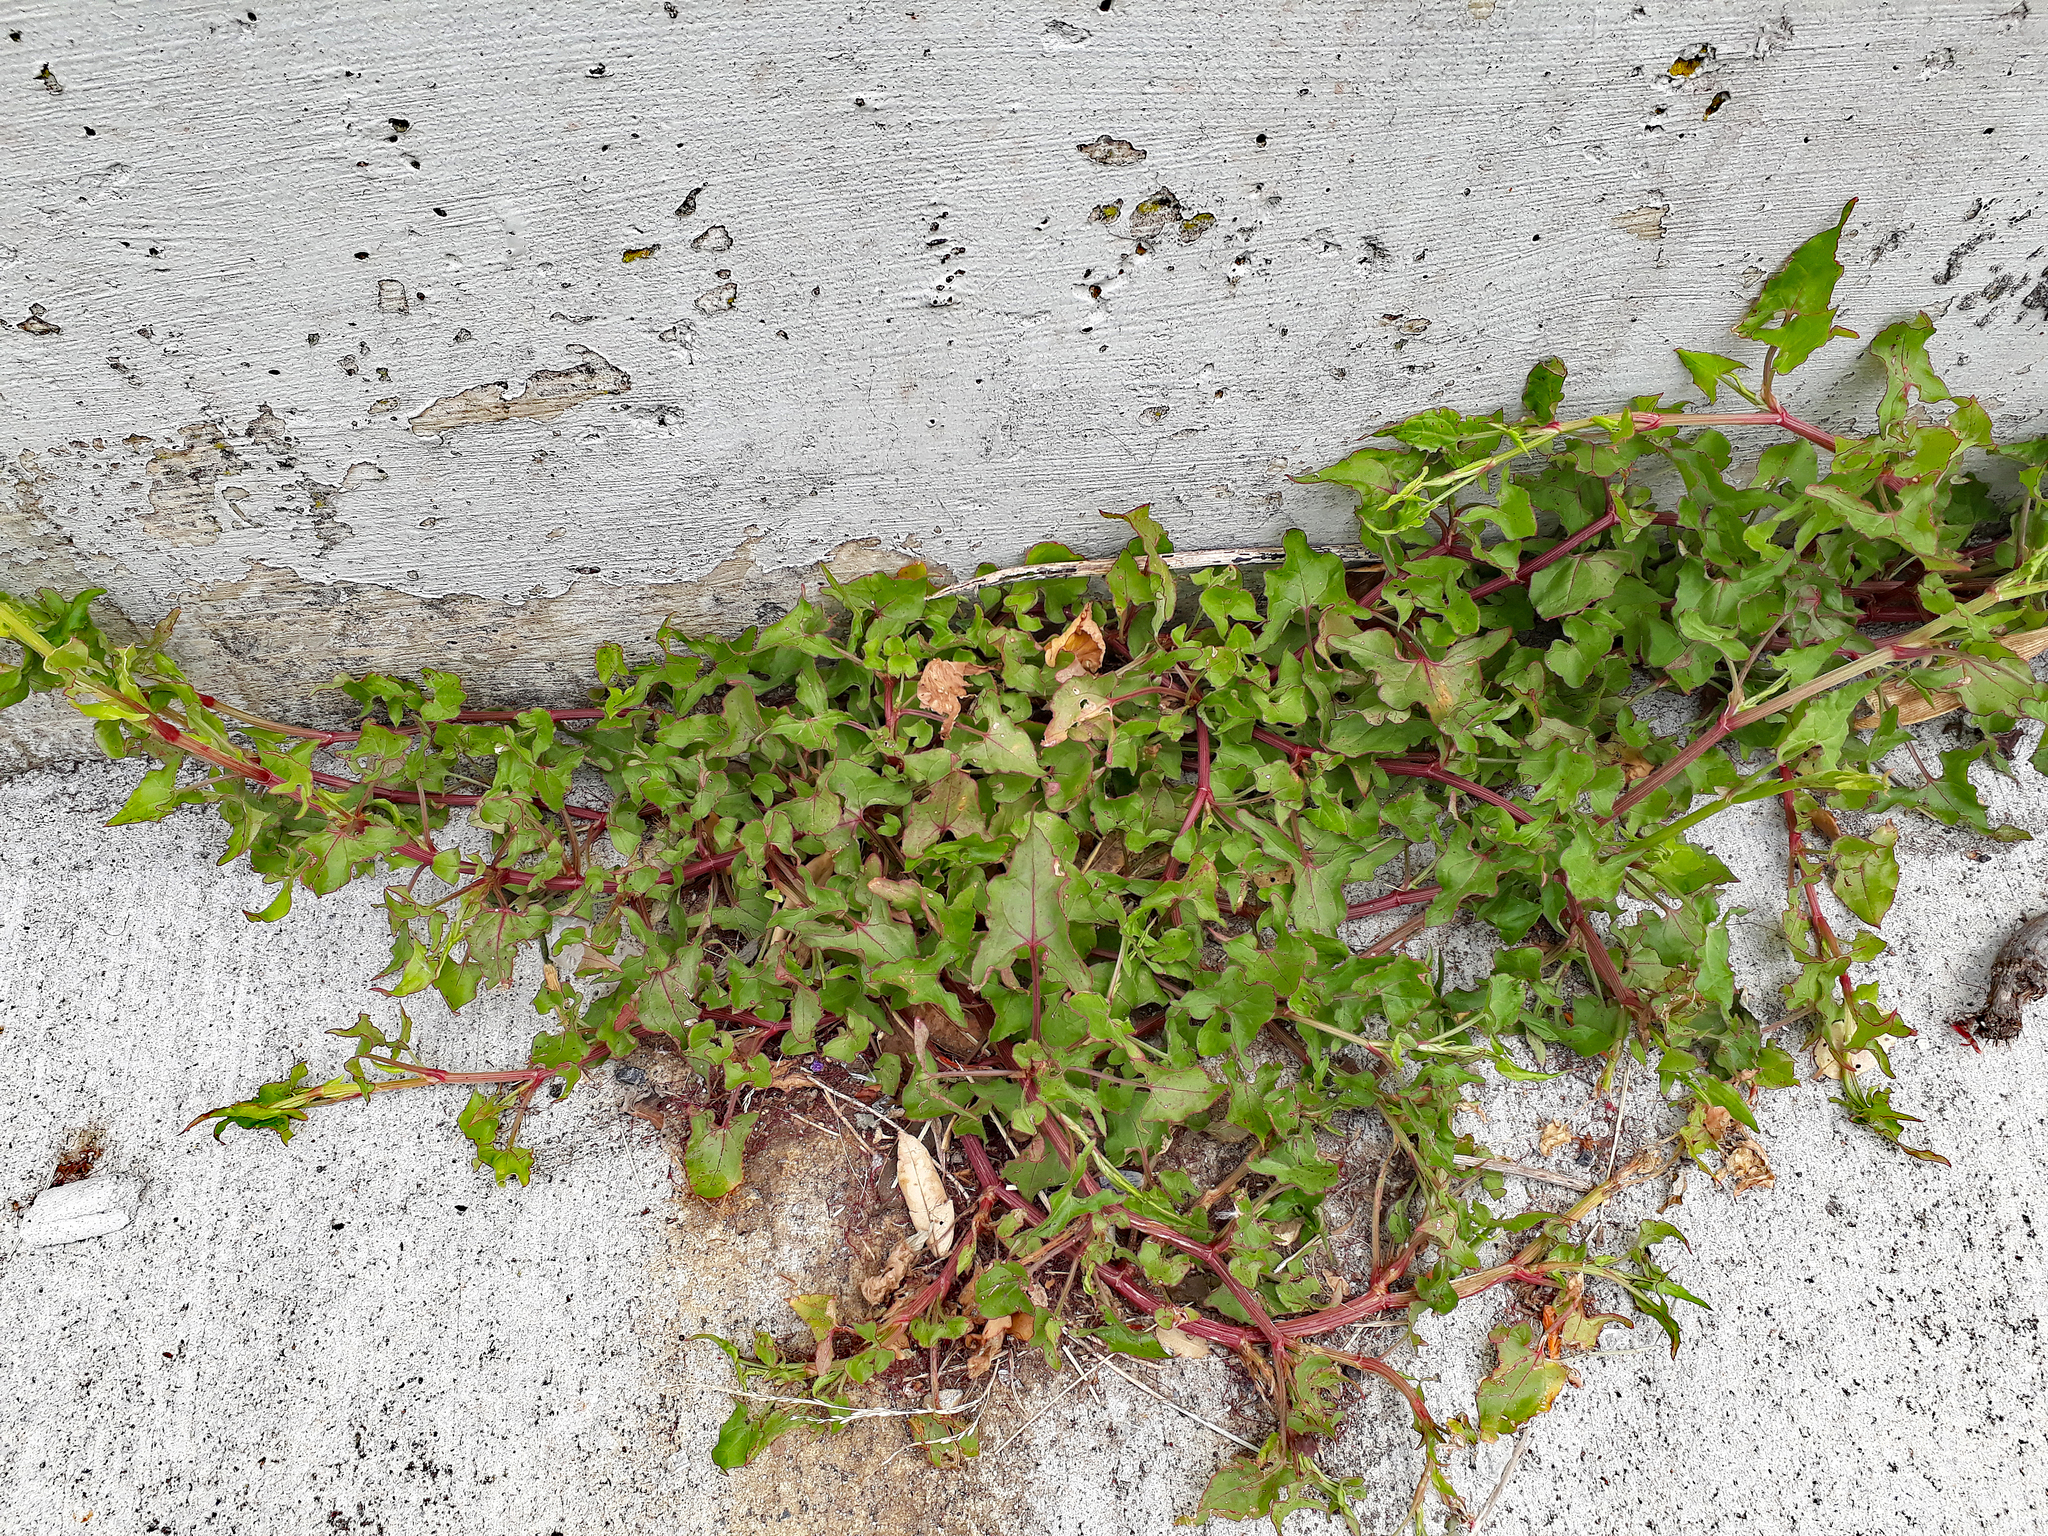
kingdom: Plantae
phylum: Tracheophyta
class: Magnoliopsida
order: Caryophyllales
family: Polygonaceae
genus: Rumex
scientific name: Rumex sagittatus
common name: Climbing dock
